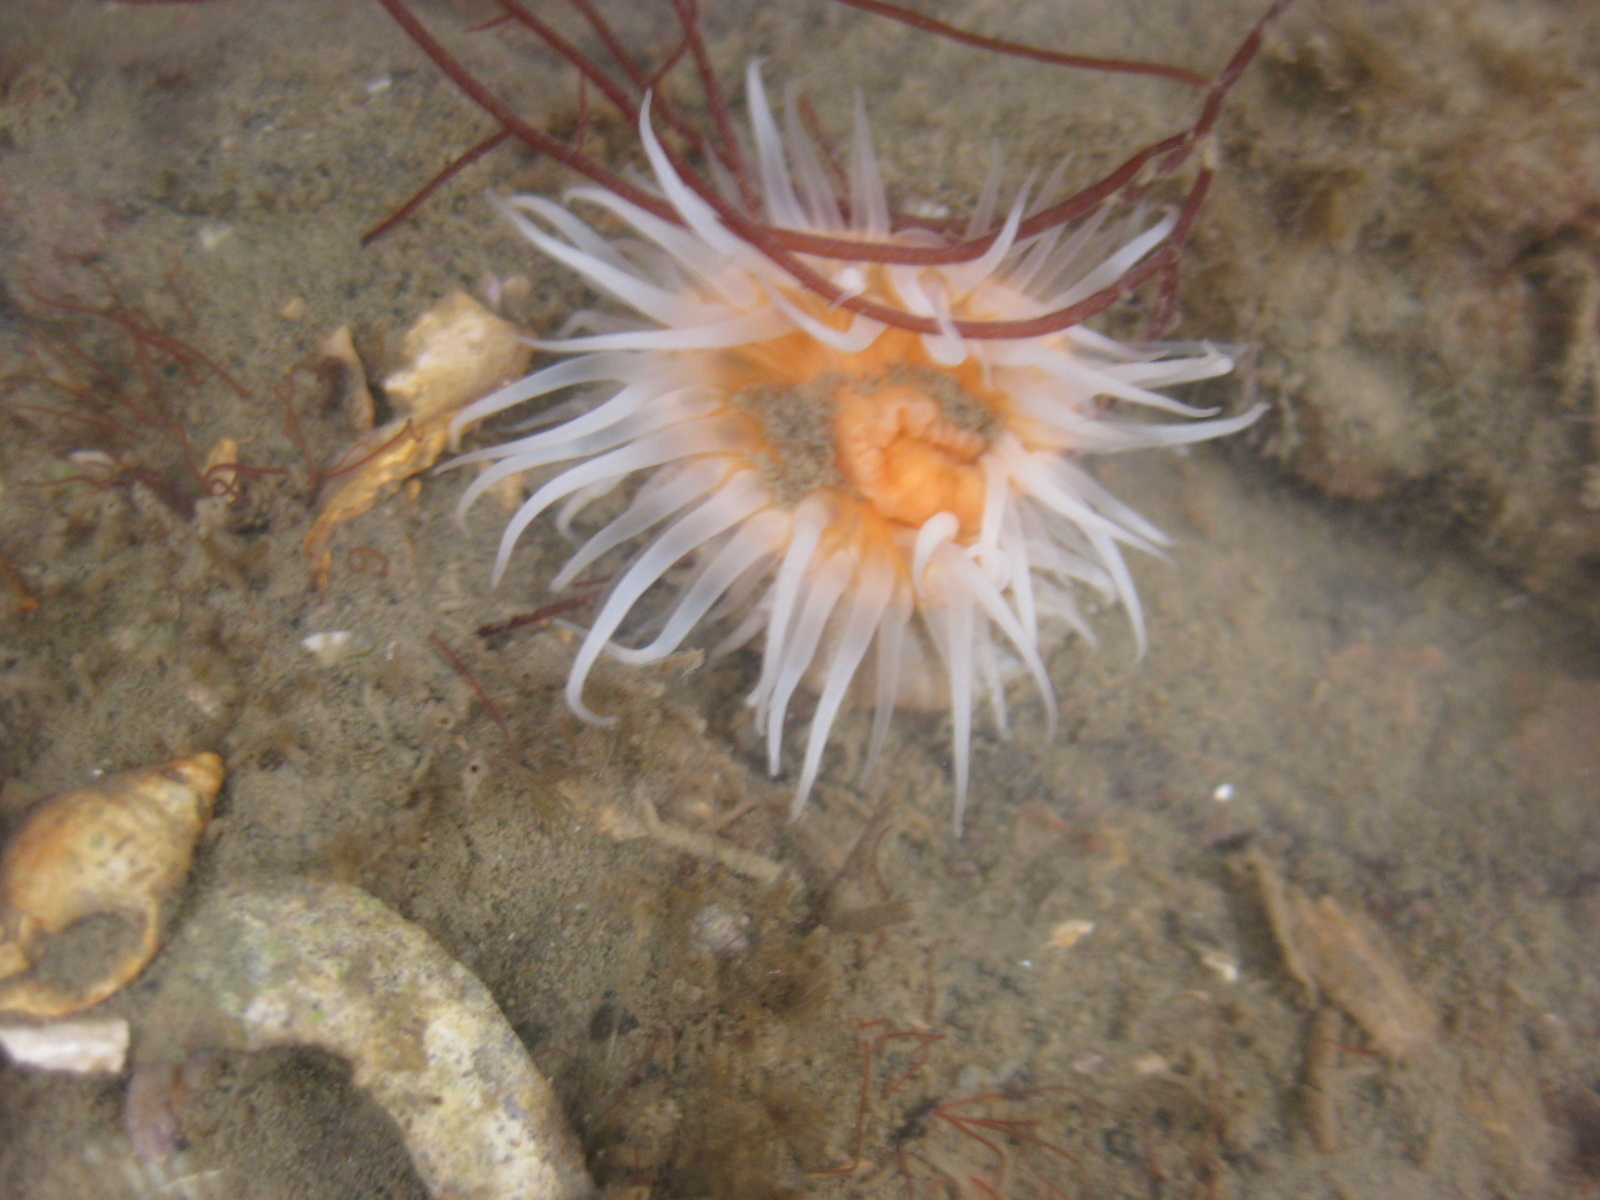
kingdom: Animalia
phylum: Cnidaria
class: Anthozoa
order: Actiniaria
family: Sagartiidae
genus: Anthothoe
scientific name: Anthothoe albocincta
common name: Orange striped anemone
